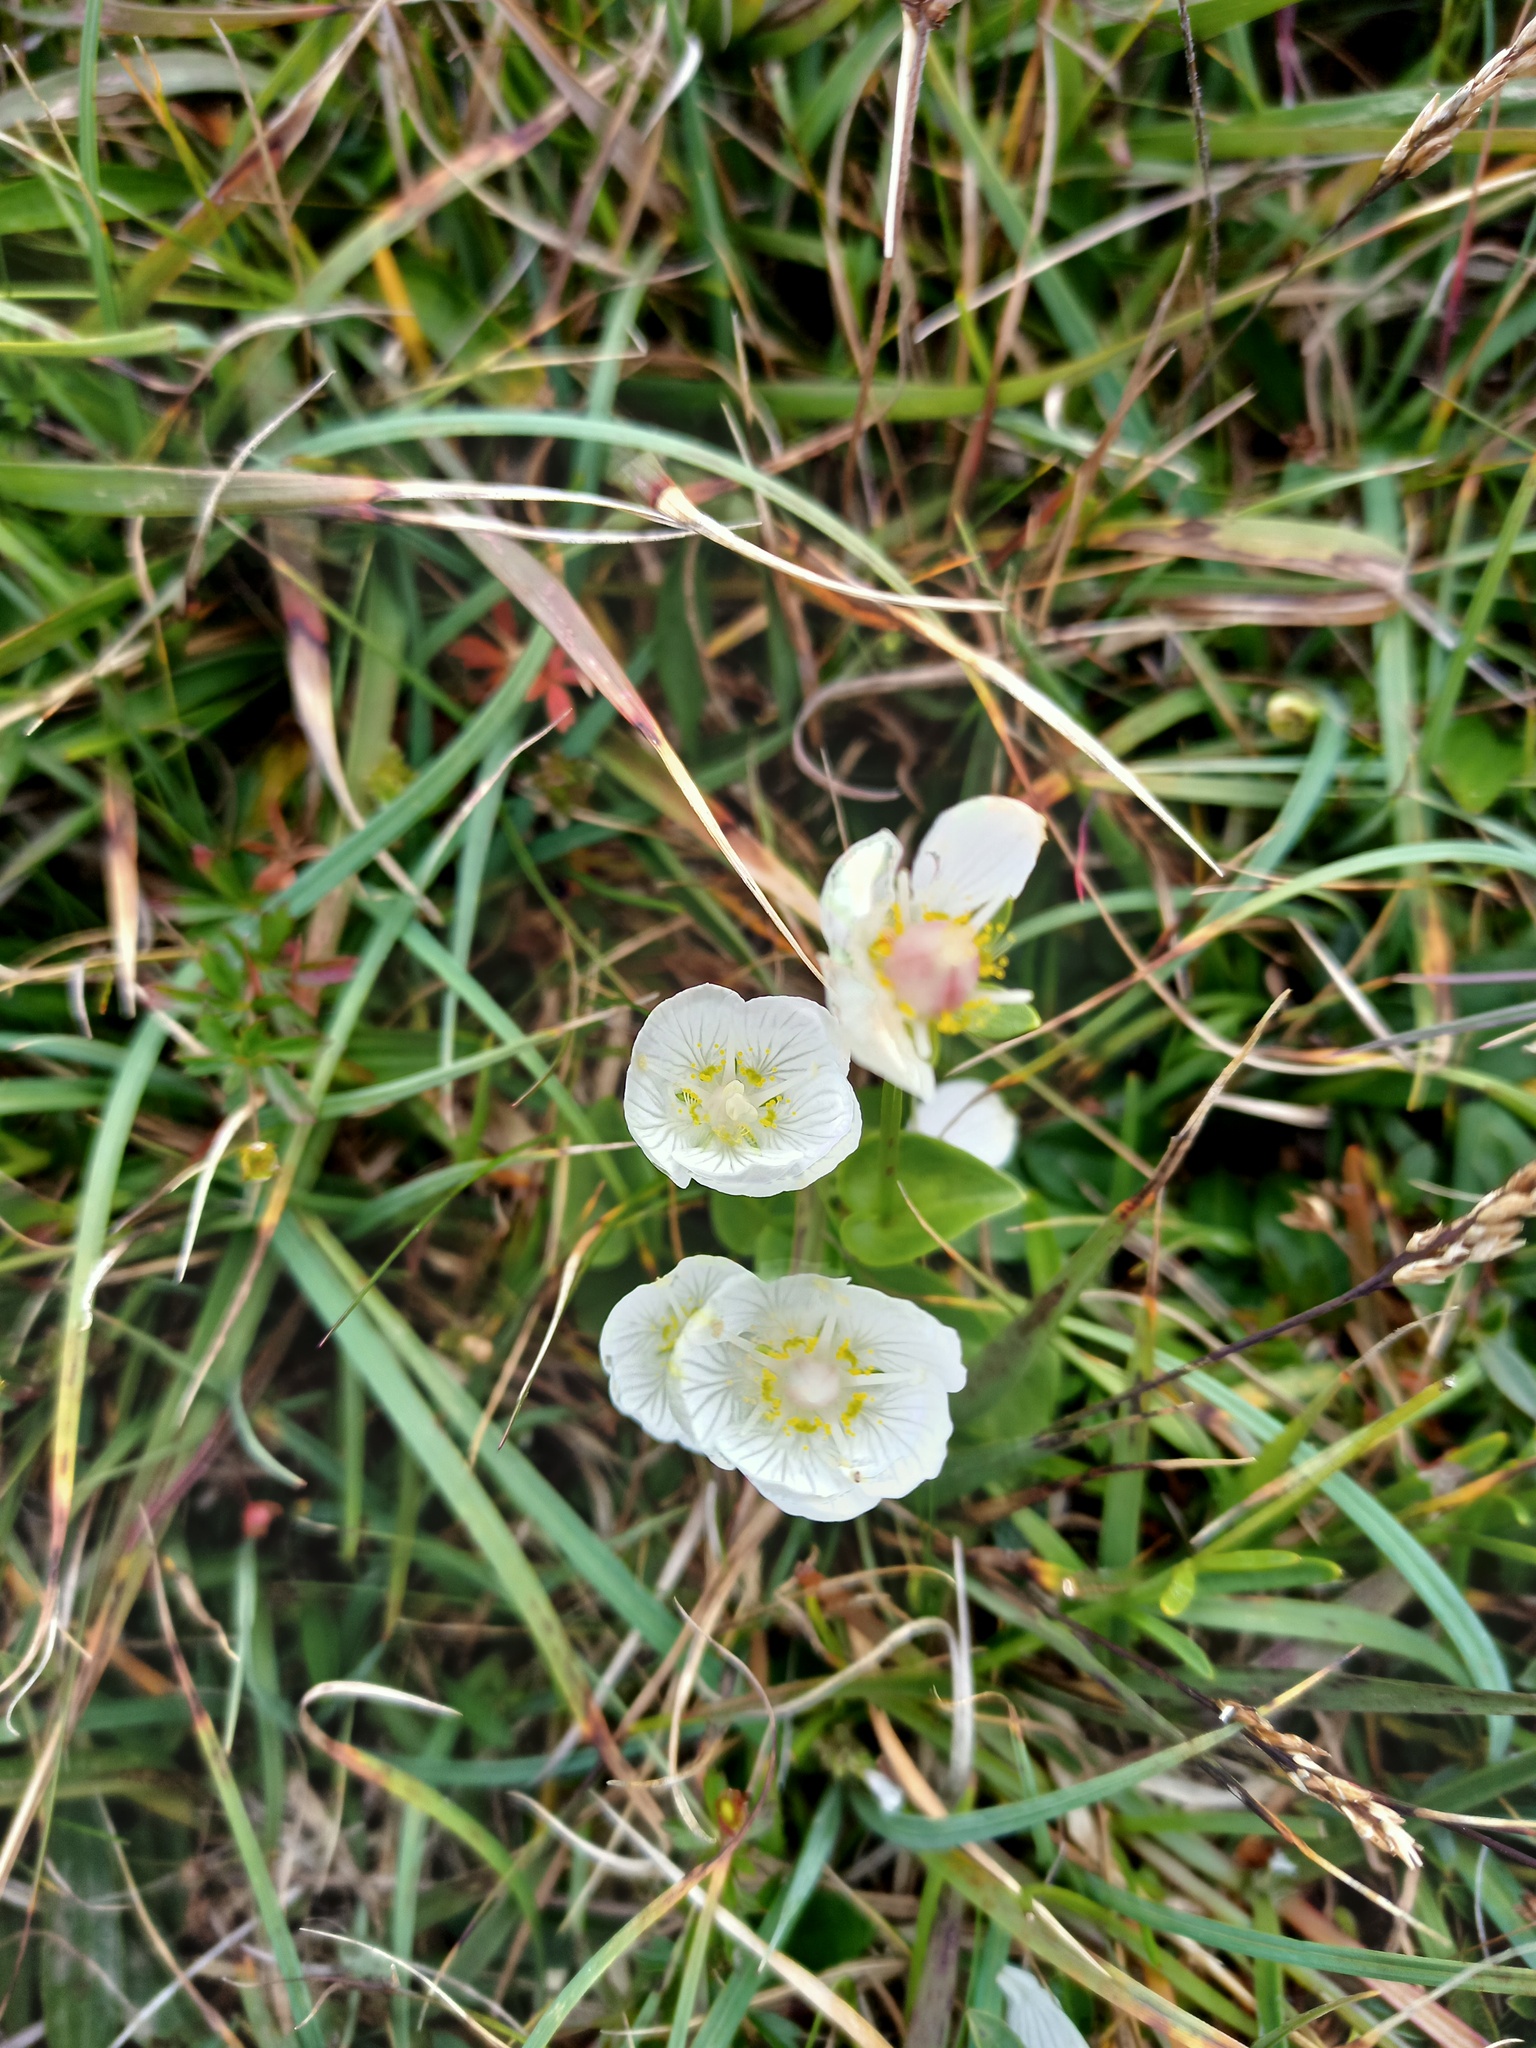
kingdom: Plantae
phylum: Tracheophyta
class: Magnoliopsida
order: Celastrales
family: Parnassiaceae
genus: Parnassia
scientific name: Parnassia palustris
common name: Grass-of-parnassus
